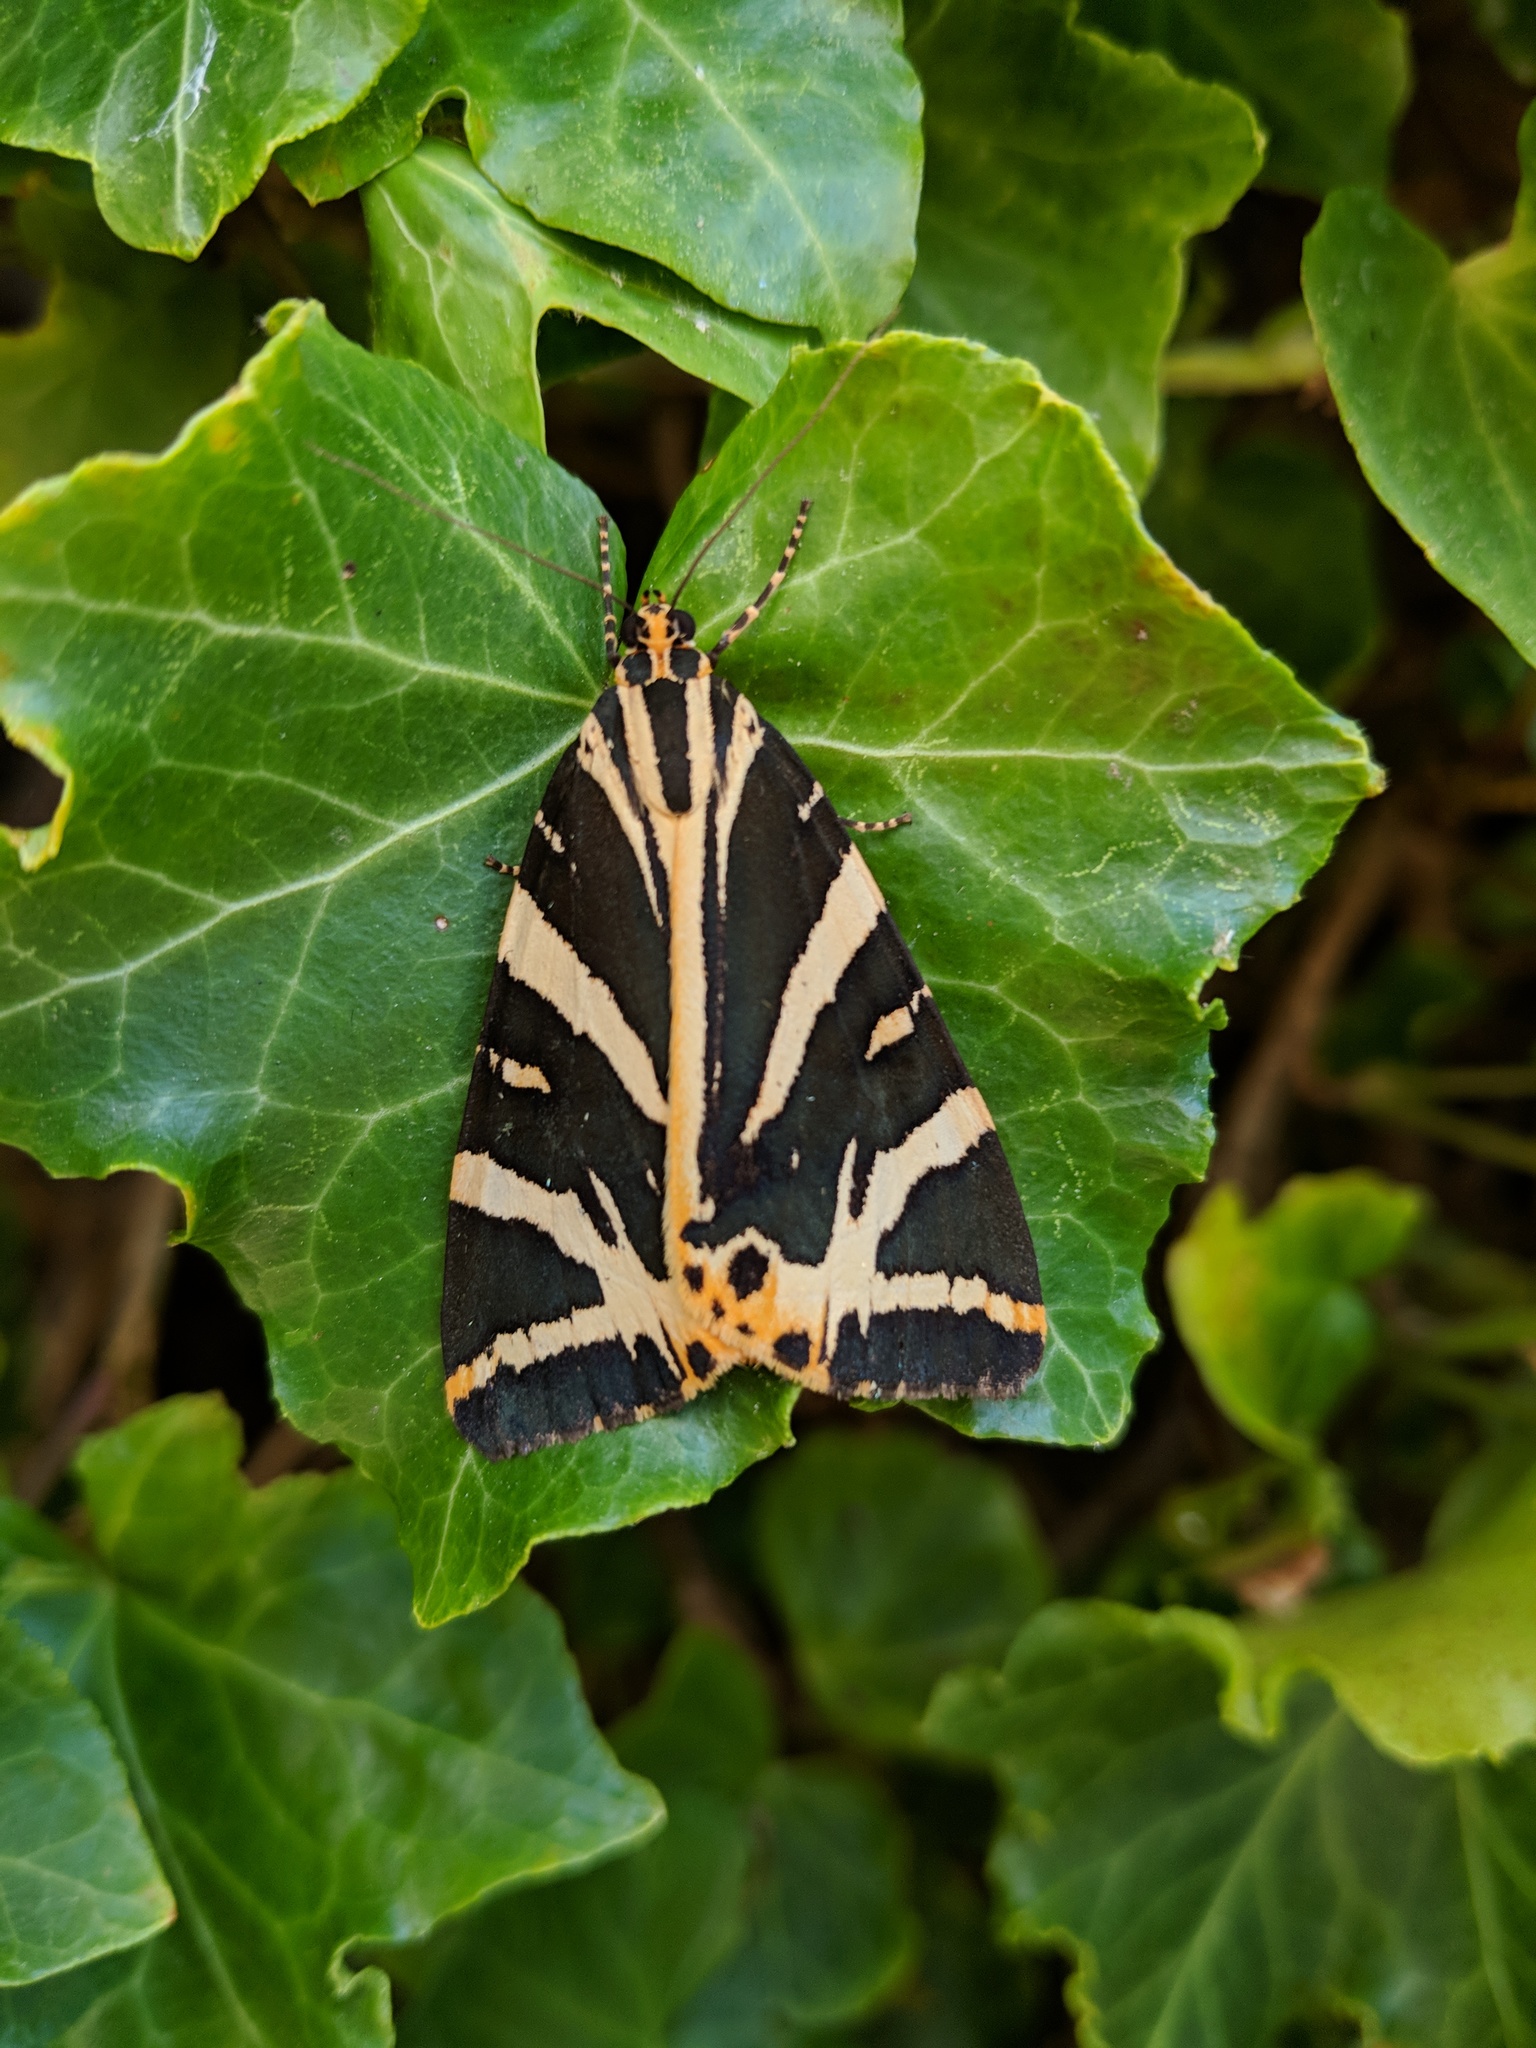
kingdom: Animalia
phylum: Arthropoda
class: Insecta
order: Lepidoptera
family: Erebidae
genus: Euplagia
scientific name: Euplagia quadripunctaria
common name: Jersey tiger
